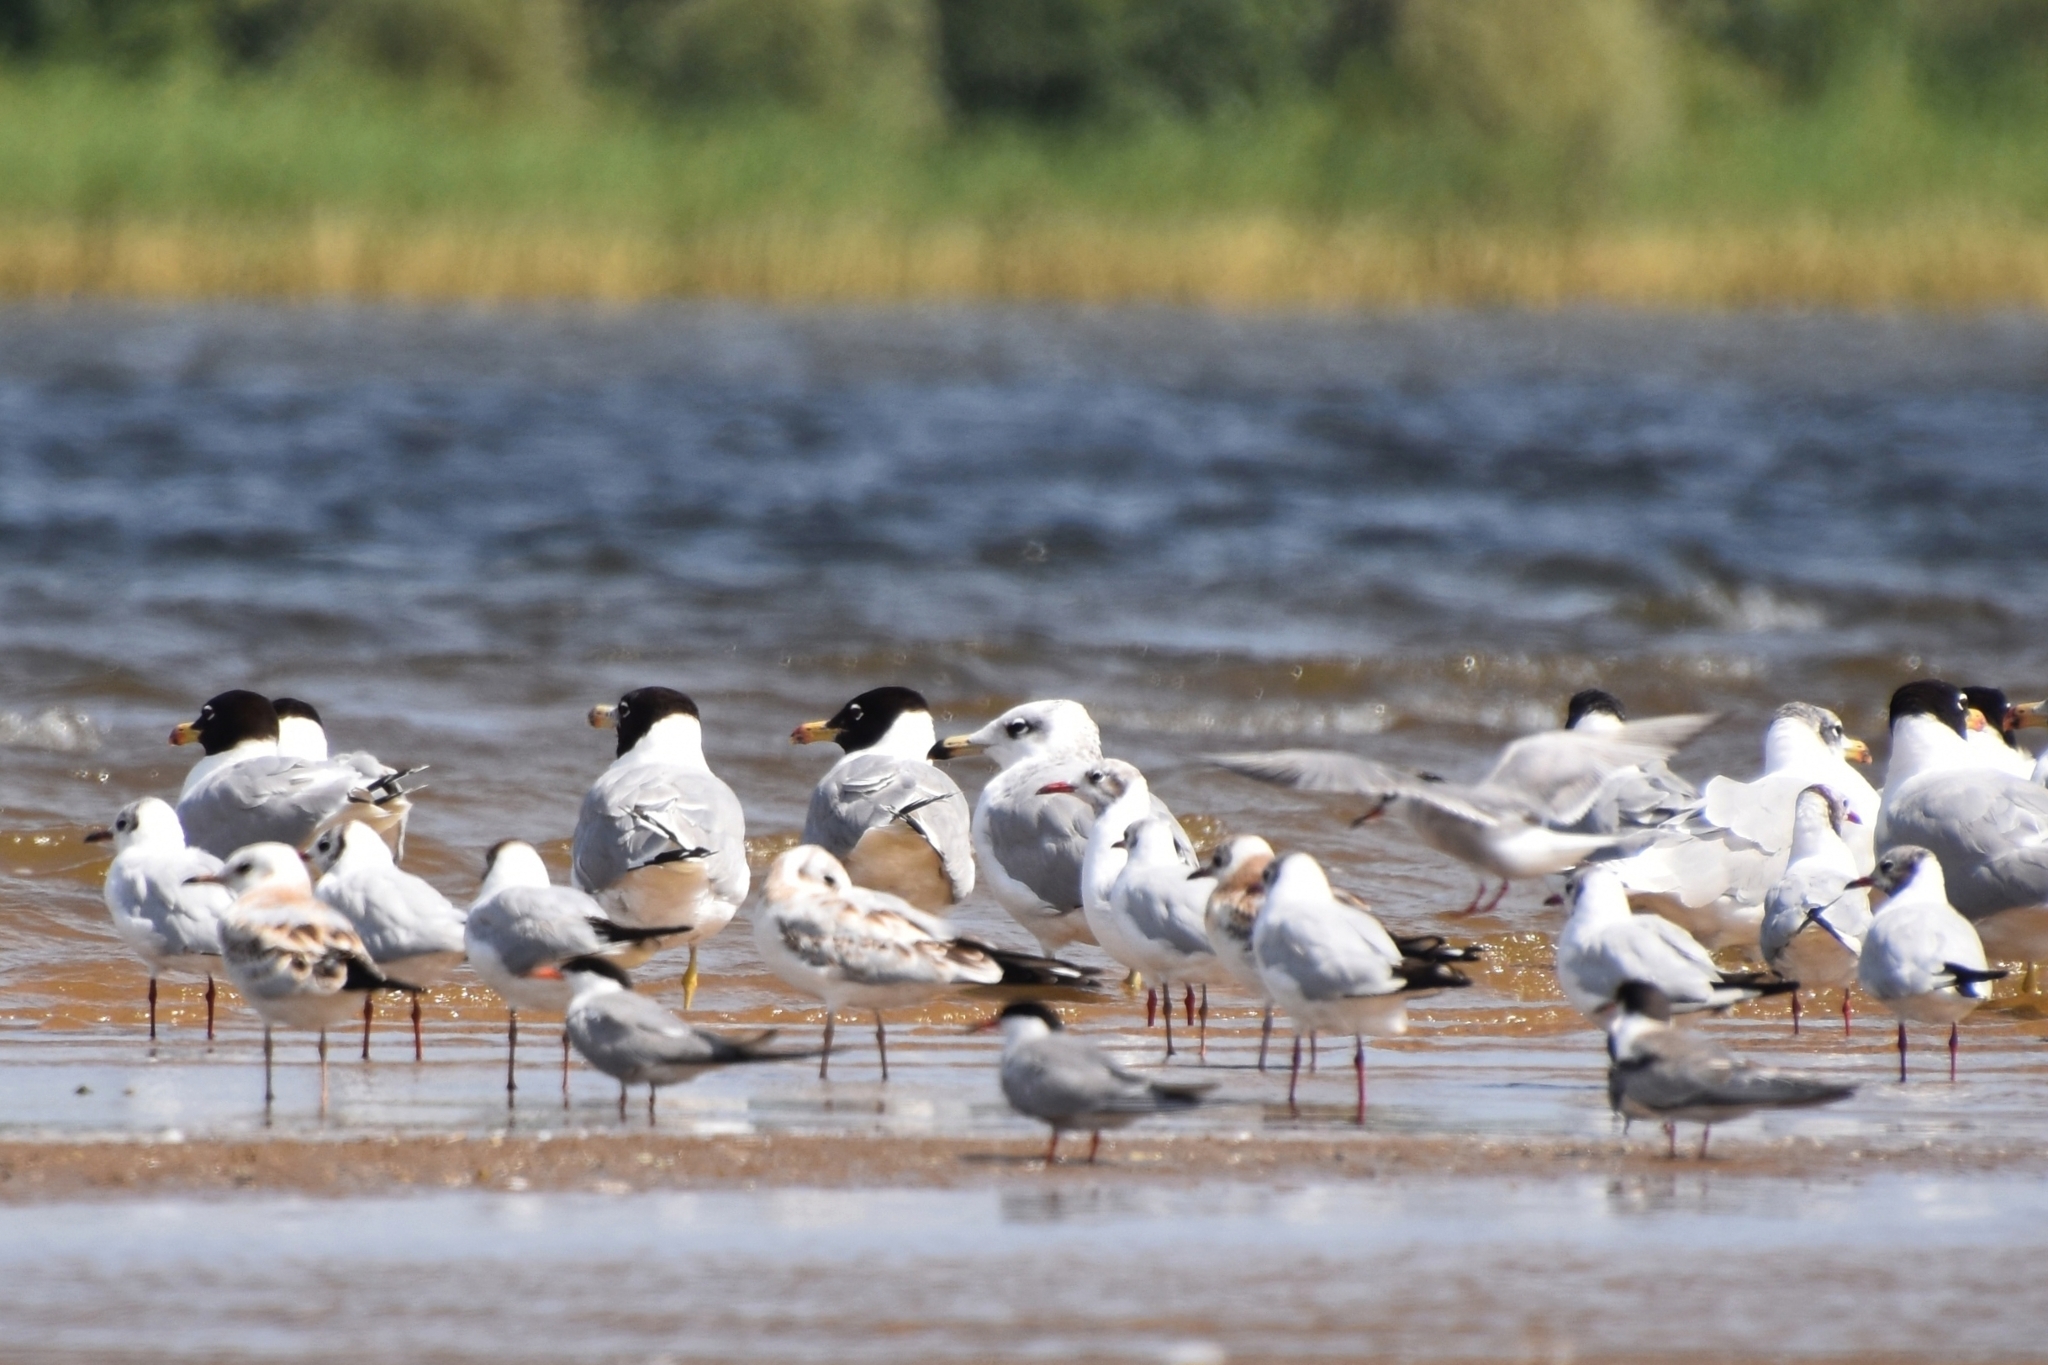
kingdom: Animalia
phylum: Chordata
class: Aves
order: Charadriiformes
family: Laridae
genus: Ichthyaetus
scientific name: Ichthyaetus ichthyaetus
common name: Pallas's gull
